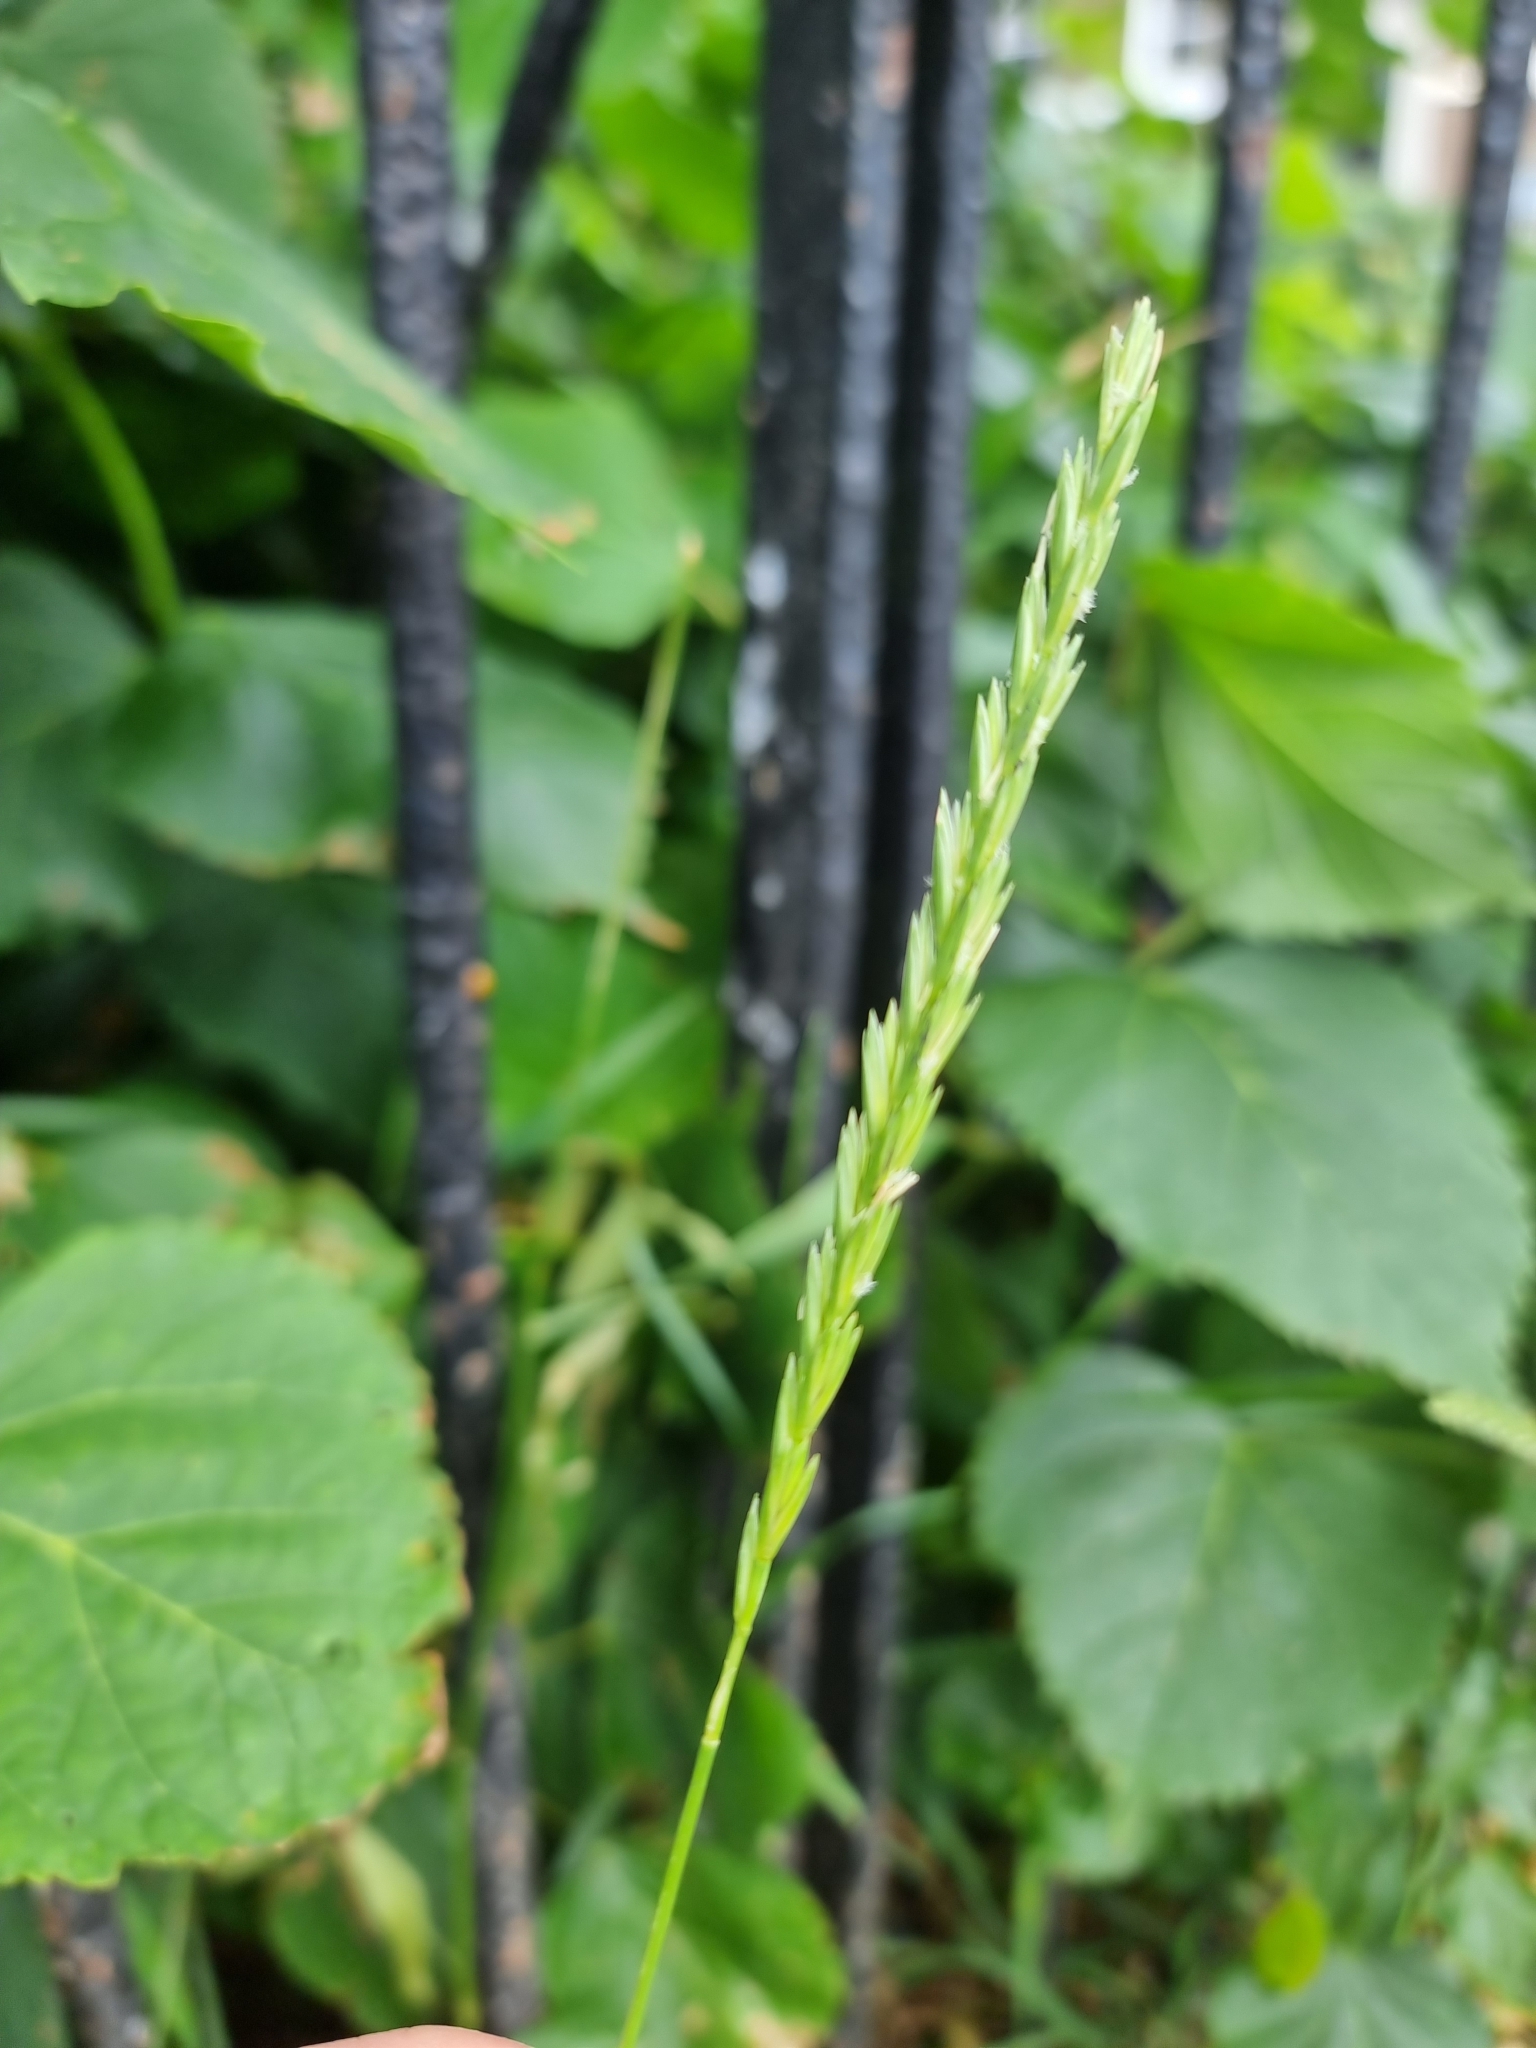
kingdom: Plantae
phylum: Tracheophyta
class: Liliopsida
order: Poales
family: Poaceae
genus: Elymus
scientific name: Elymus repens
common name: Quackgrass
